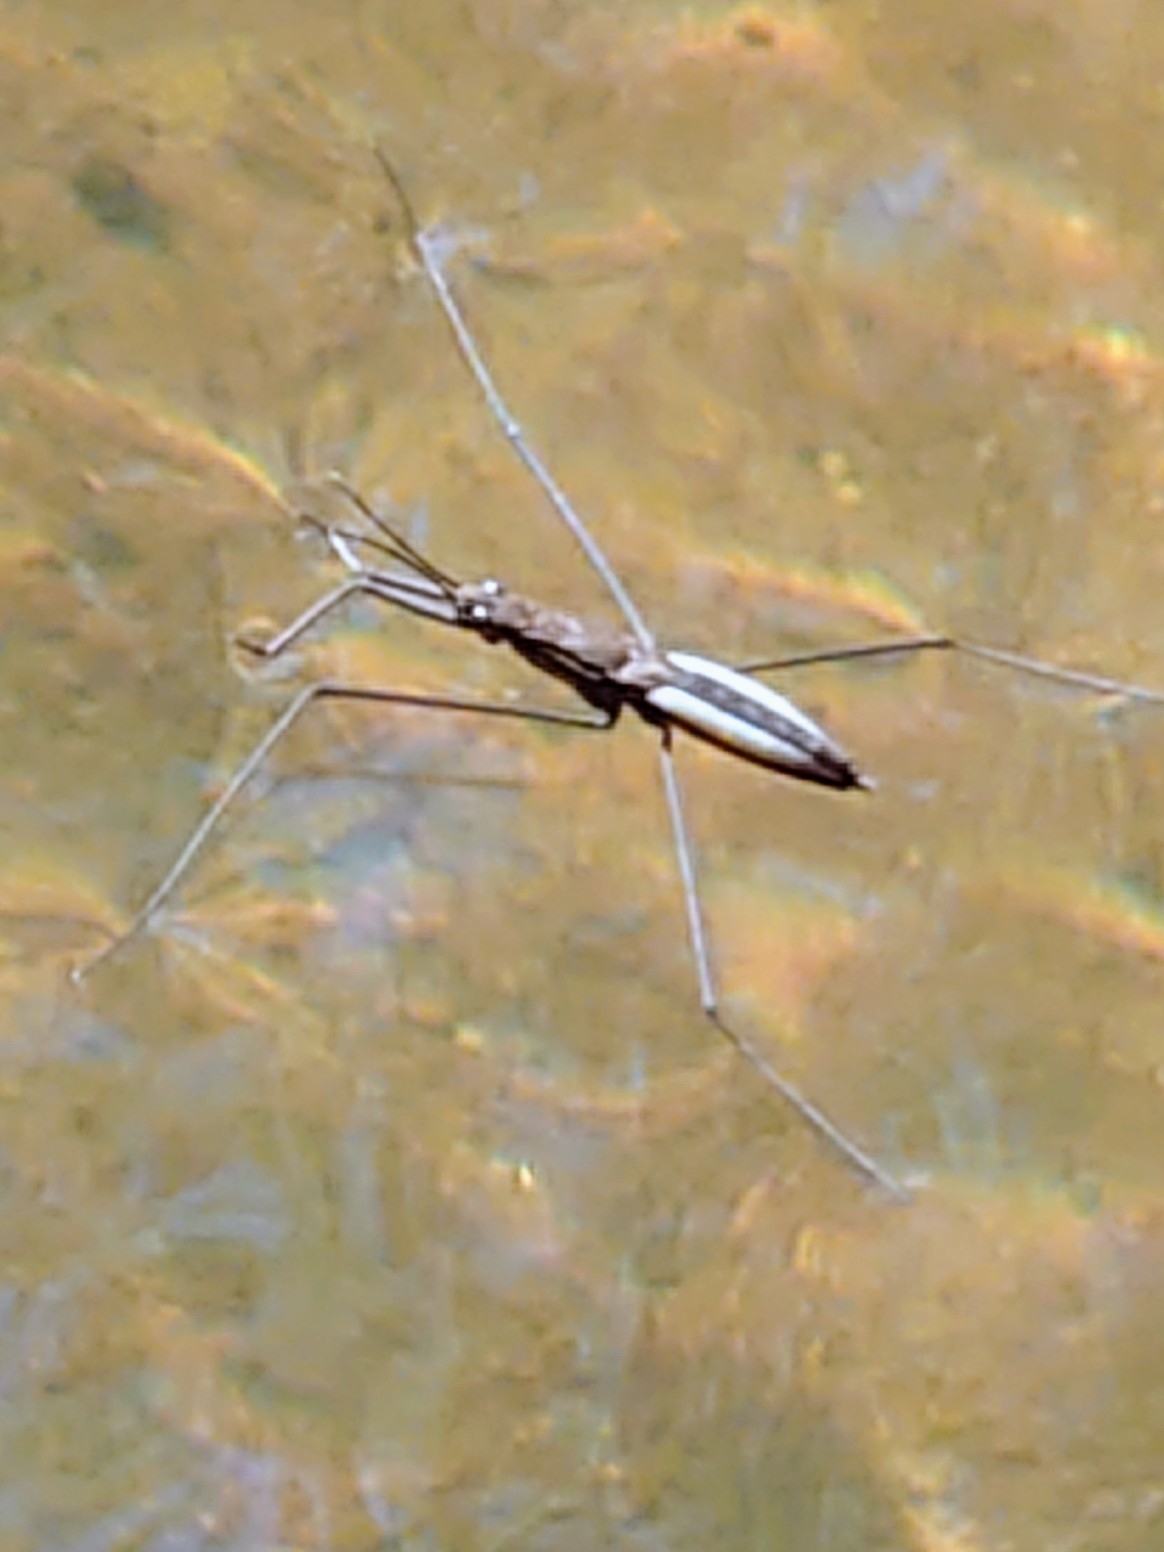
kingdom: Animalia
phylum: Arthropoda
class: Insecta
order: Hemiptera
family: Gerridae
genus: Aquarius
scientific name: Aquarius najas
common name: River skater
